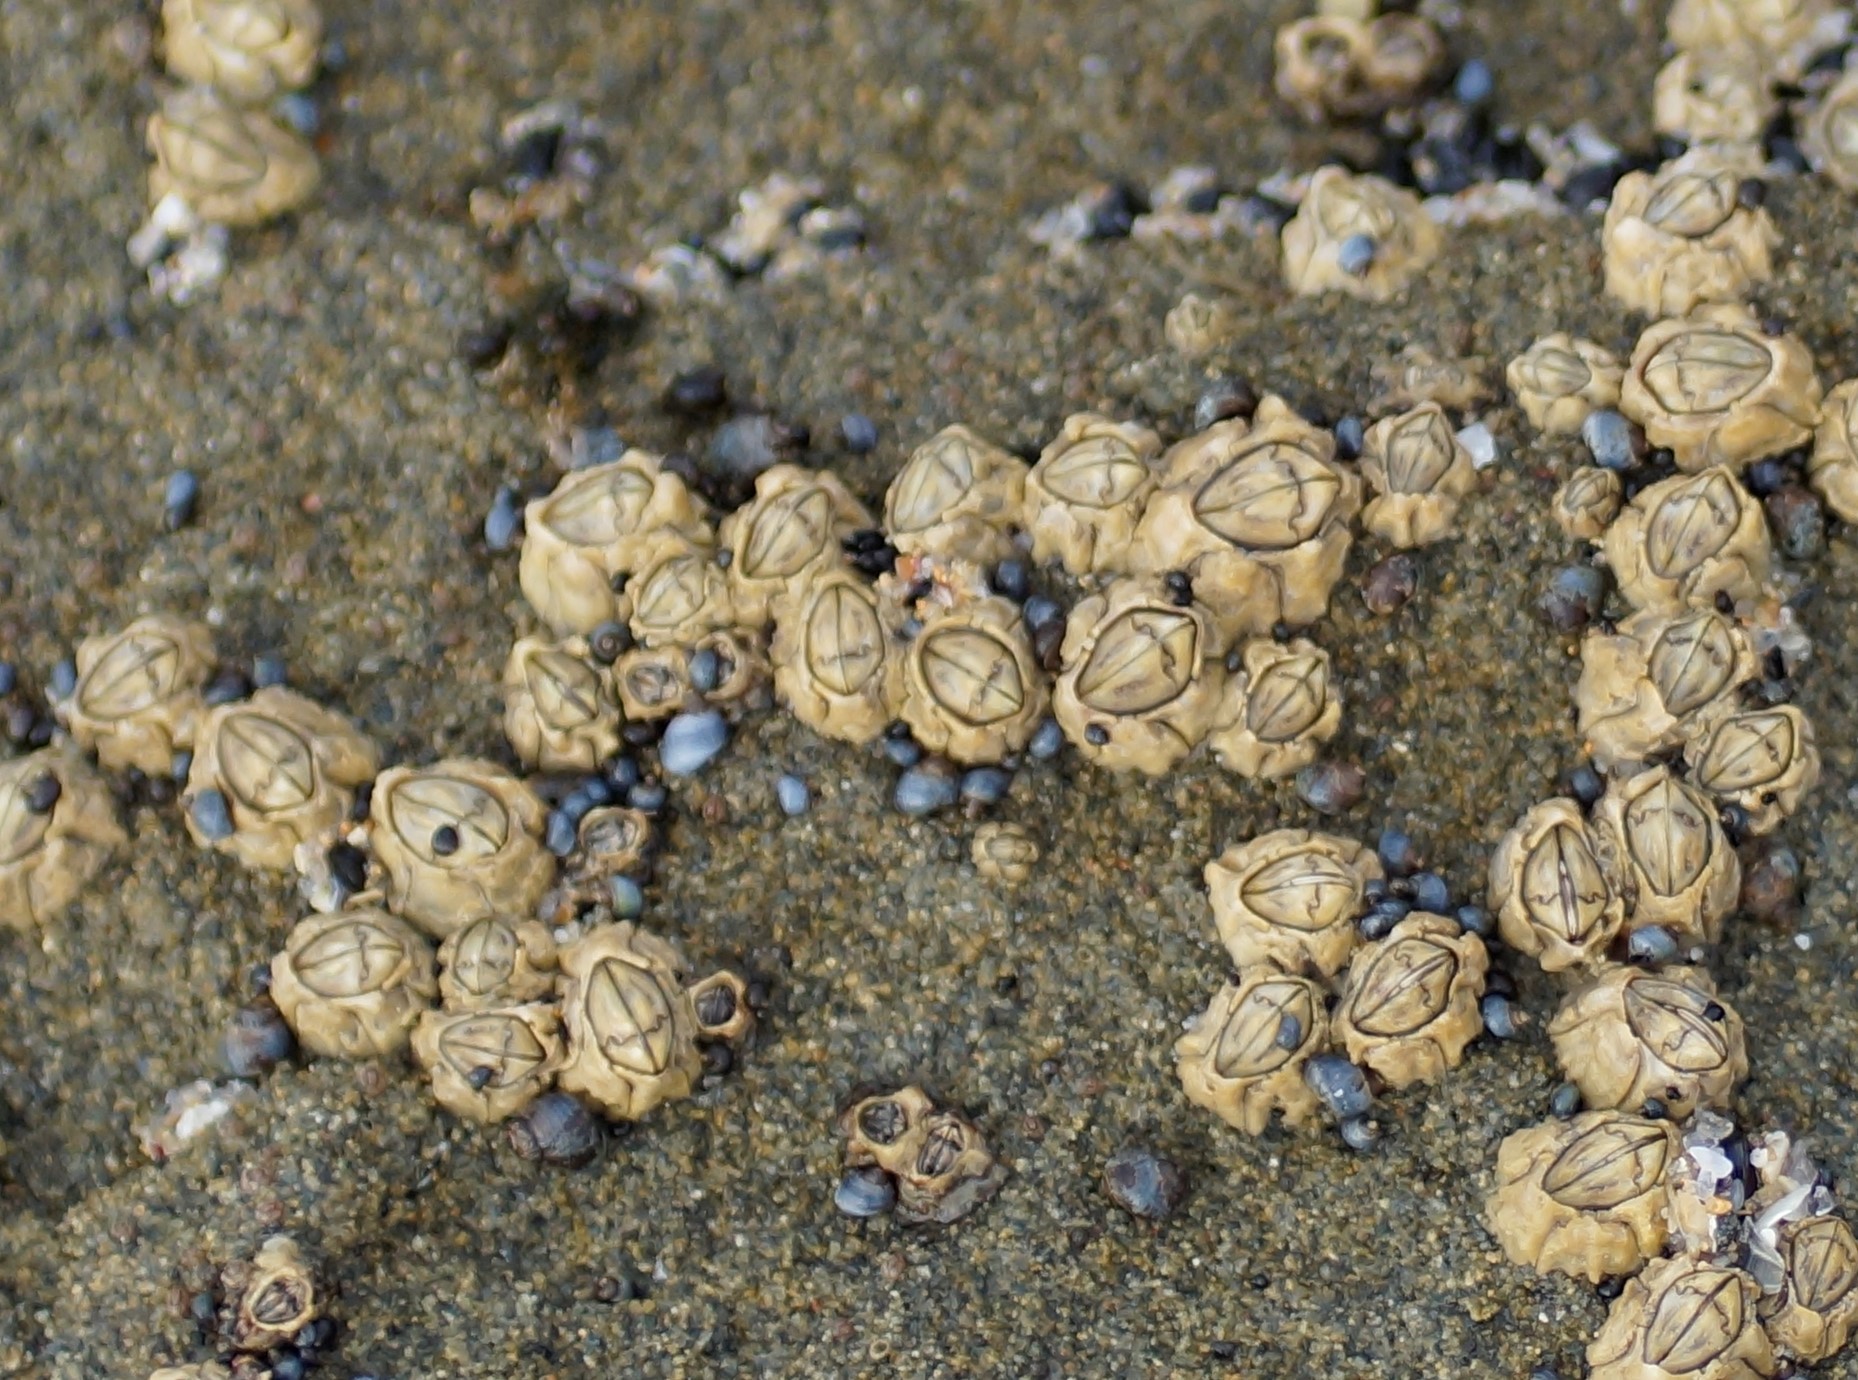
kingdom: Animalia
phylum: Arthropoda
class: Maxillopoda
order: Sessilia
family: Chthamalidae
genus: Chthamalus
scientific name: Chthamalus antennatus
